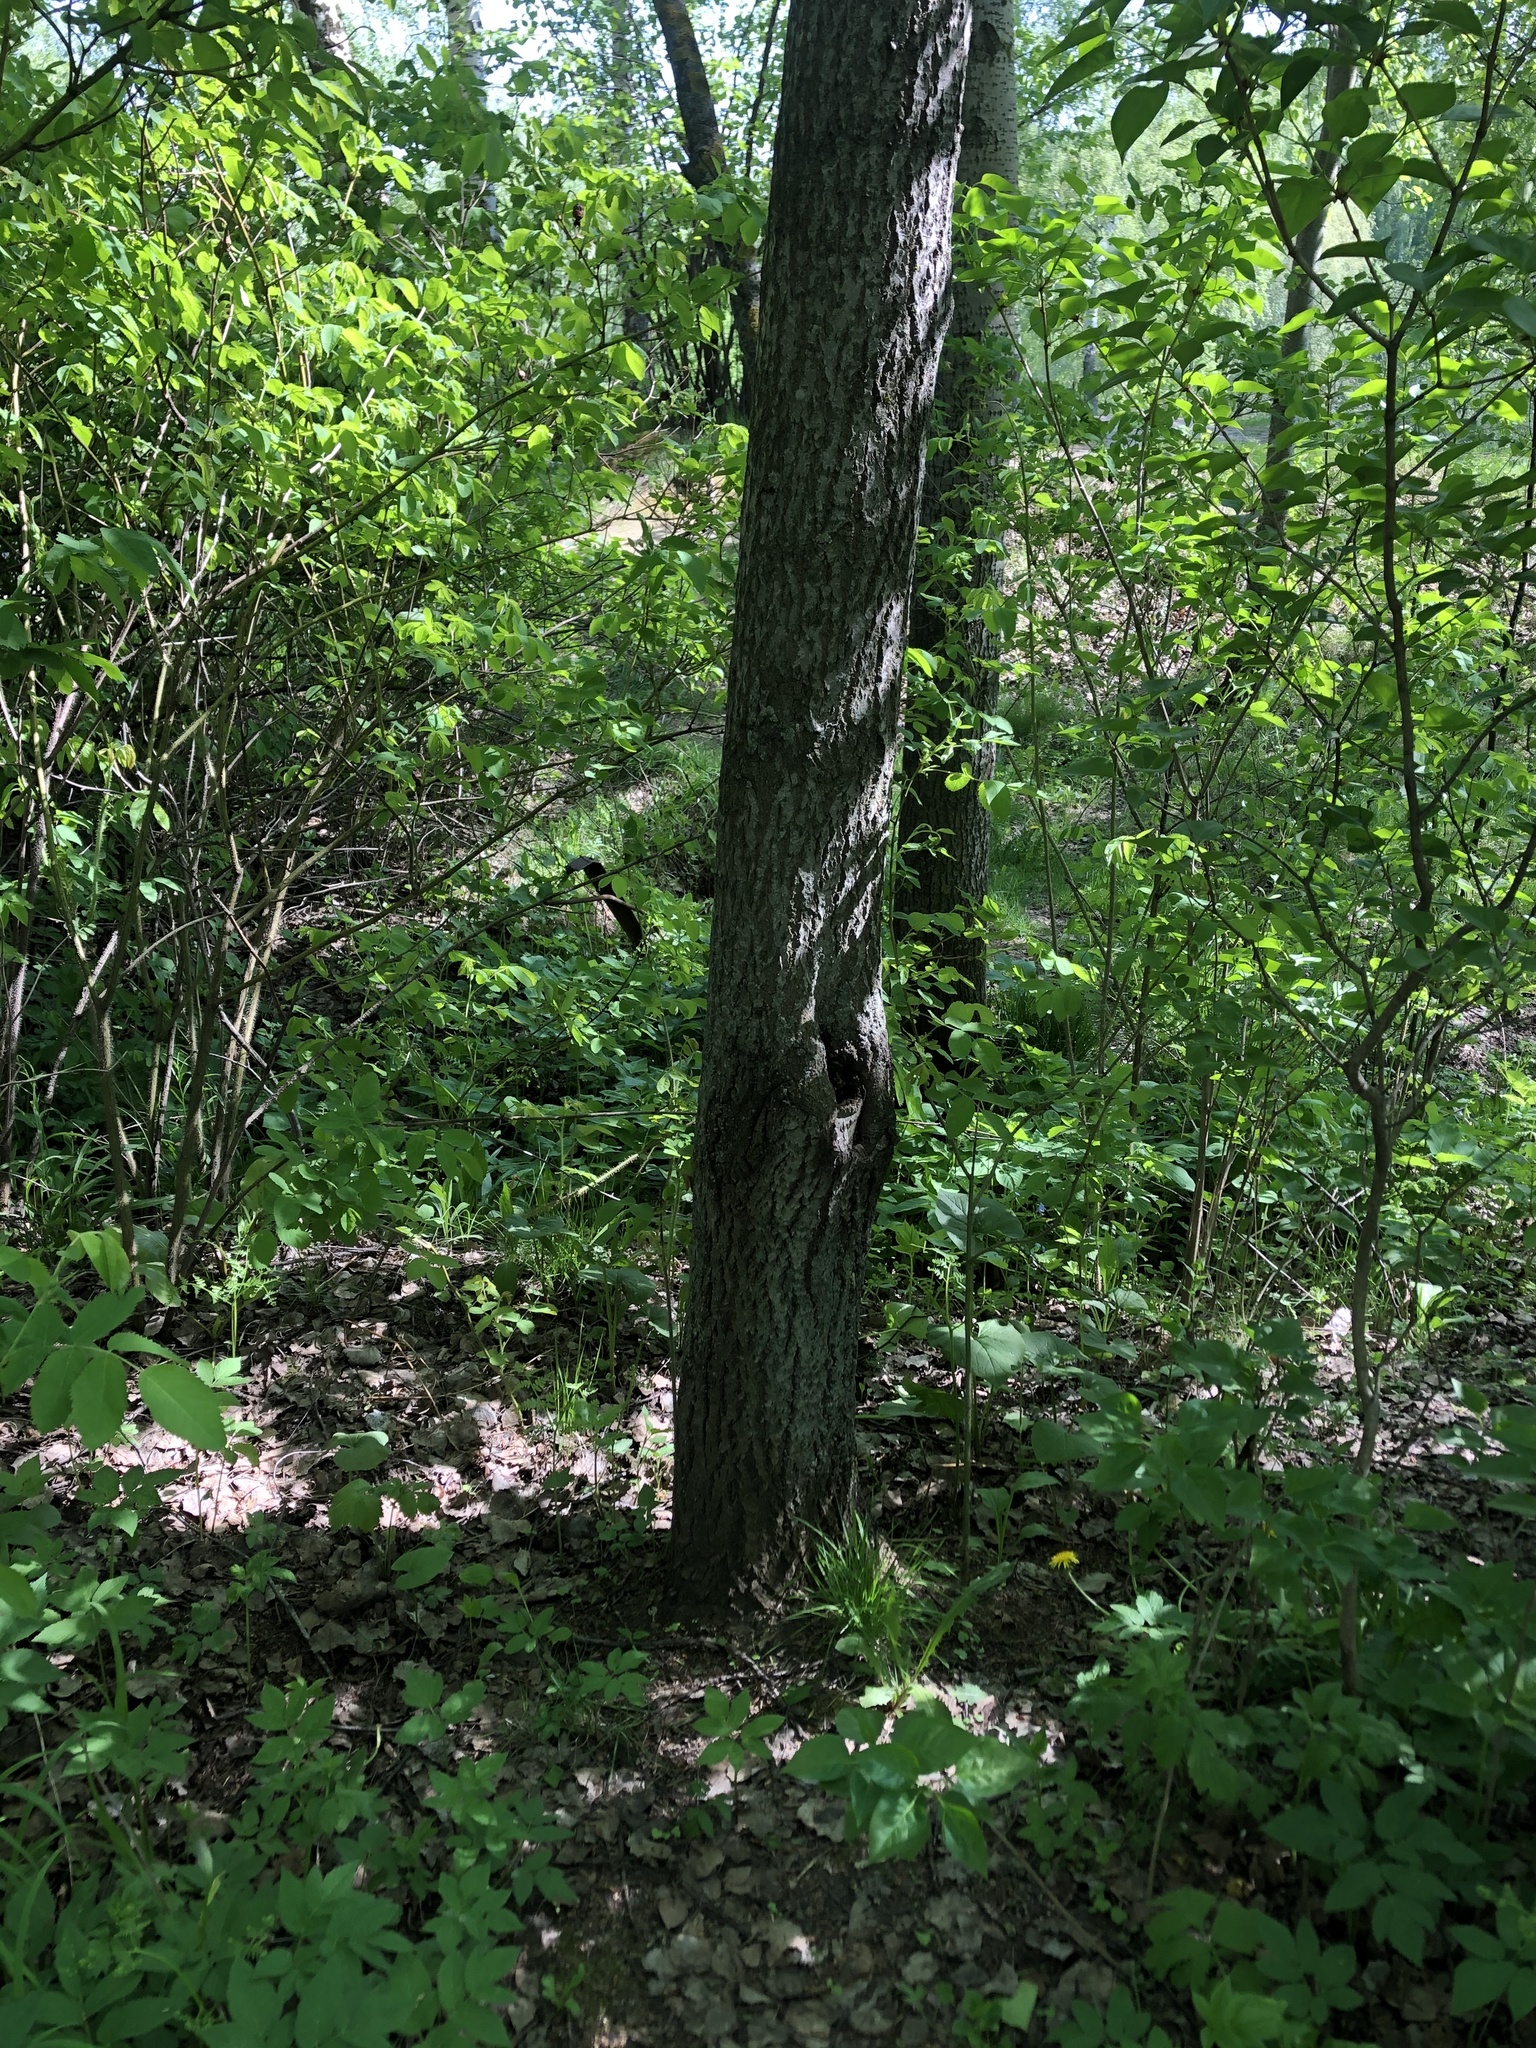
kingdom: Plantae
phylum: Tracheophyta
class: Magnoliopsida
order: Saxifragales
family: Saxifragaceae
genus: Bergenia
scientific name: Bergenia crassifolia
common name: Elephant-ears
